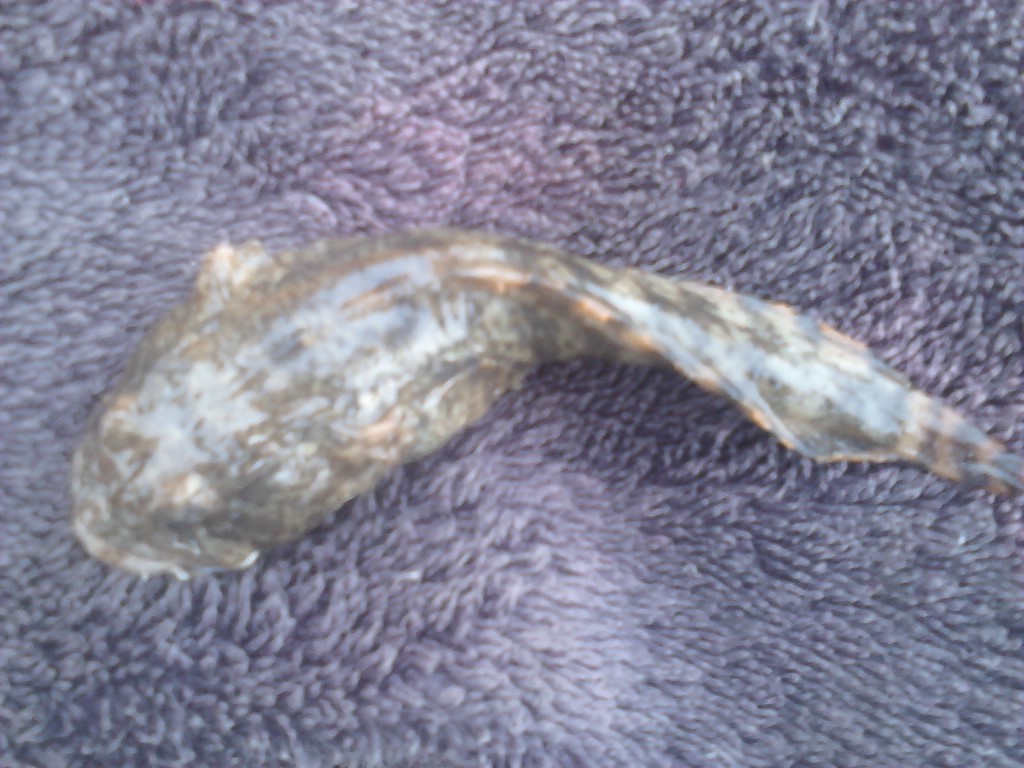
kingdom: Animalia
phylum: Chordata
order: Batrachoidiformes
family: Batrachoididae
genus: Opsanus
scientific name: Opsanus tau
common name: Oyster toadfish
